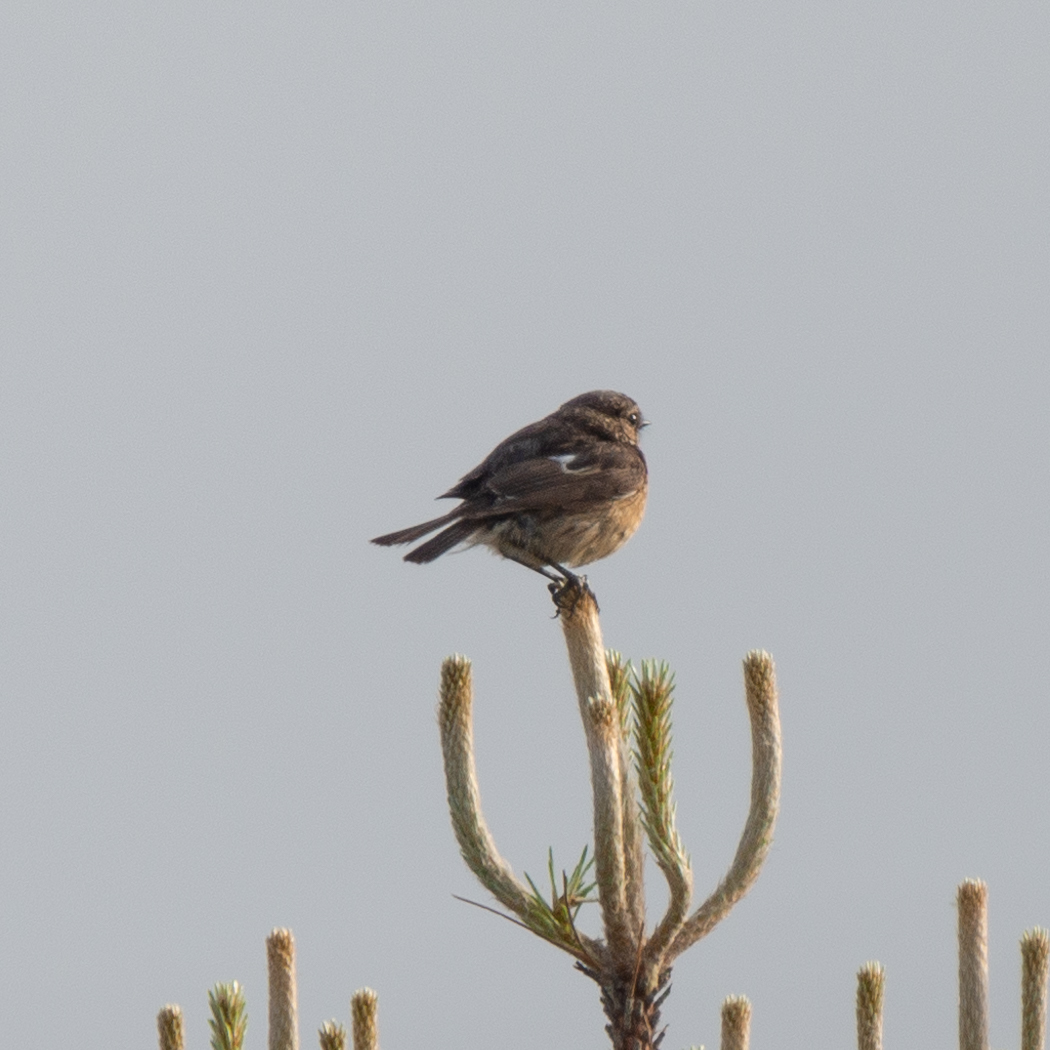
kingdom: Animalia
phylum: Chordata
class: Aves
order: Passeriformes
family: Muscicapidae
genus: Saxicola
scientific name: Saxicola rubicola
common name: European stonechat
